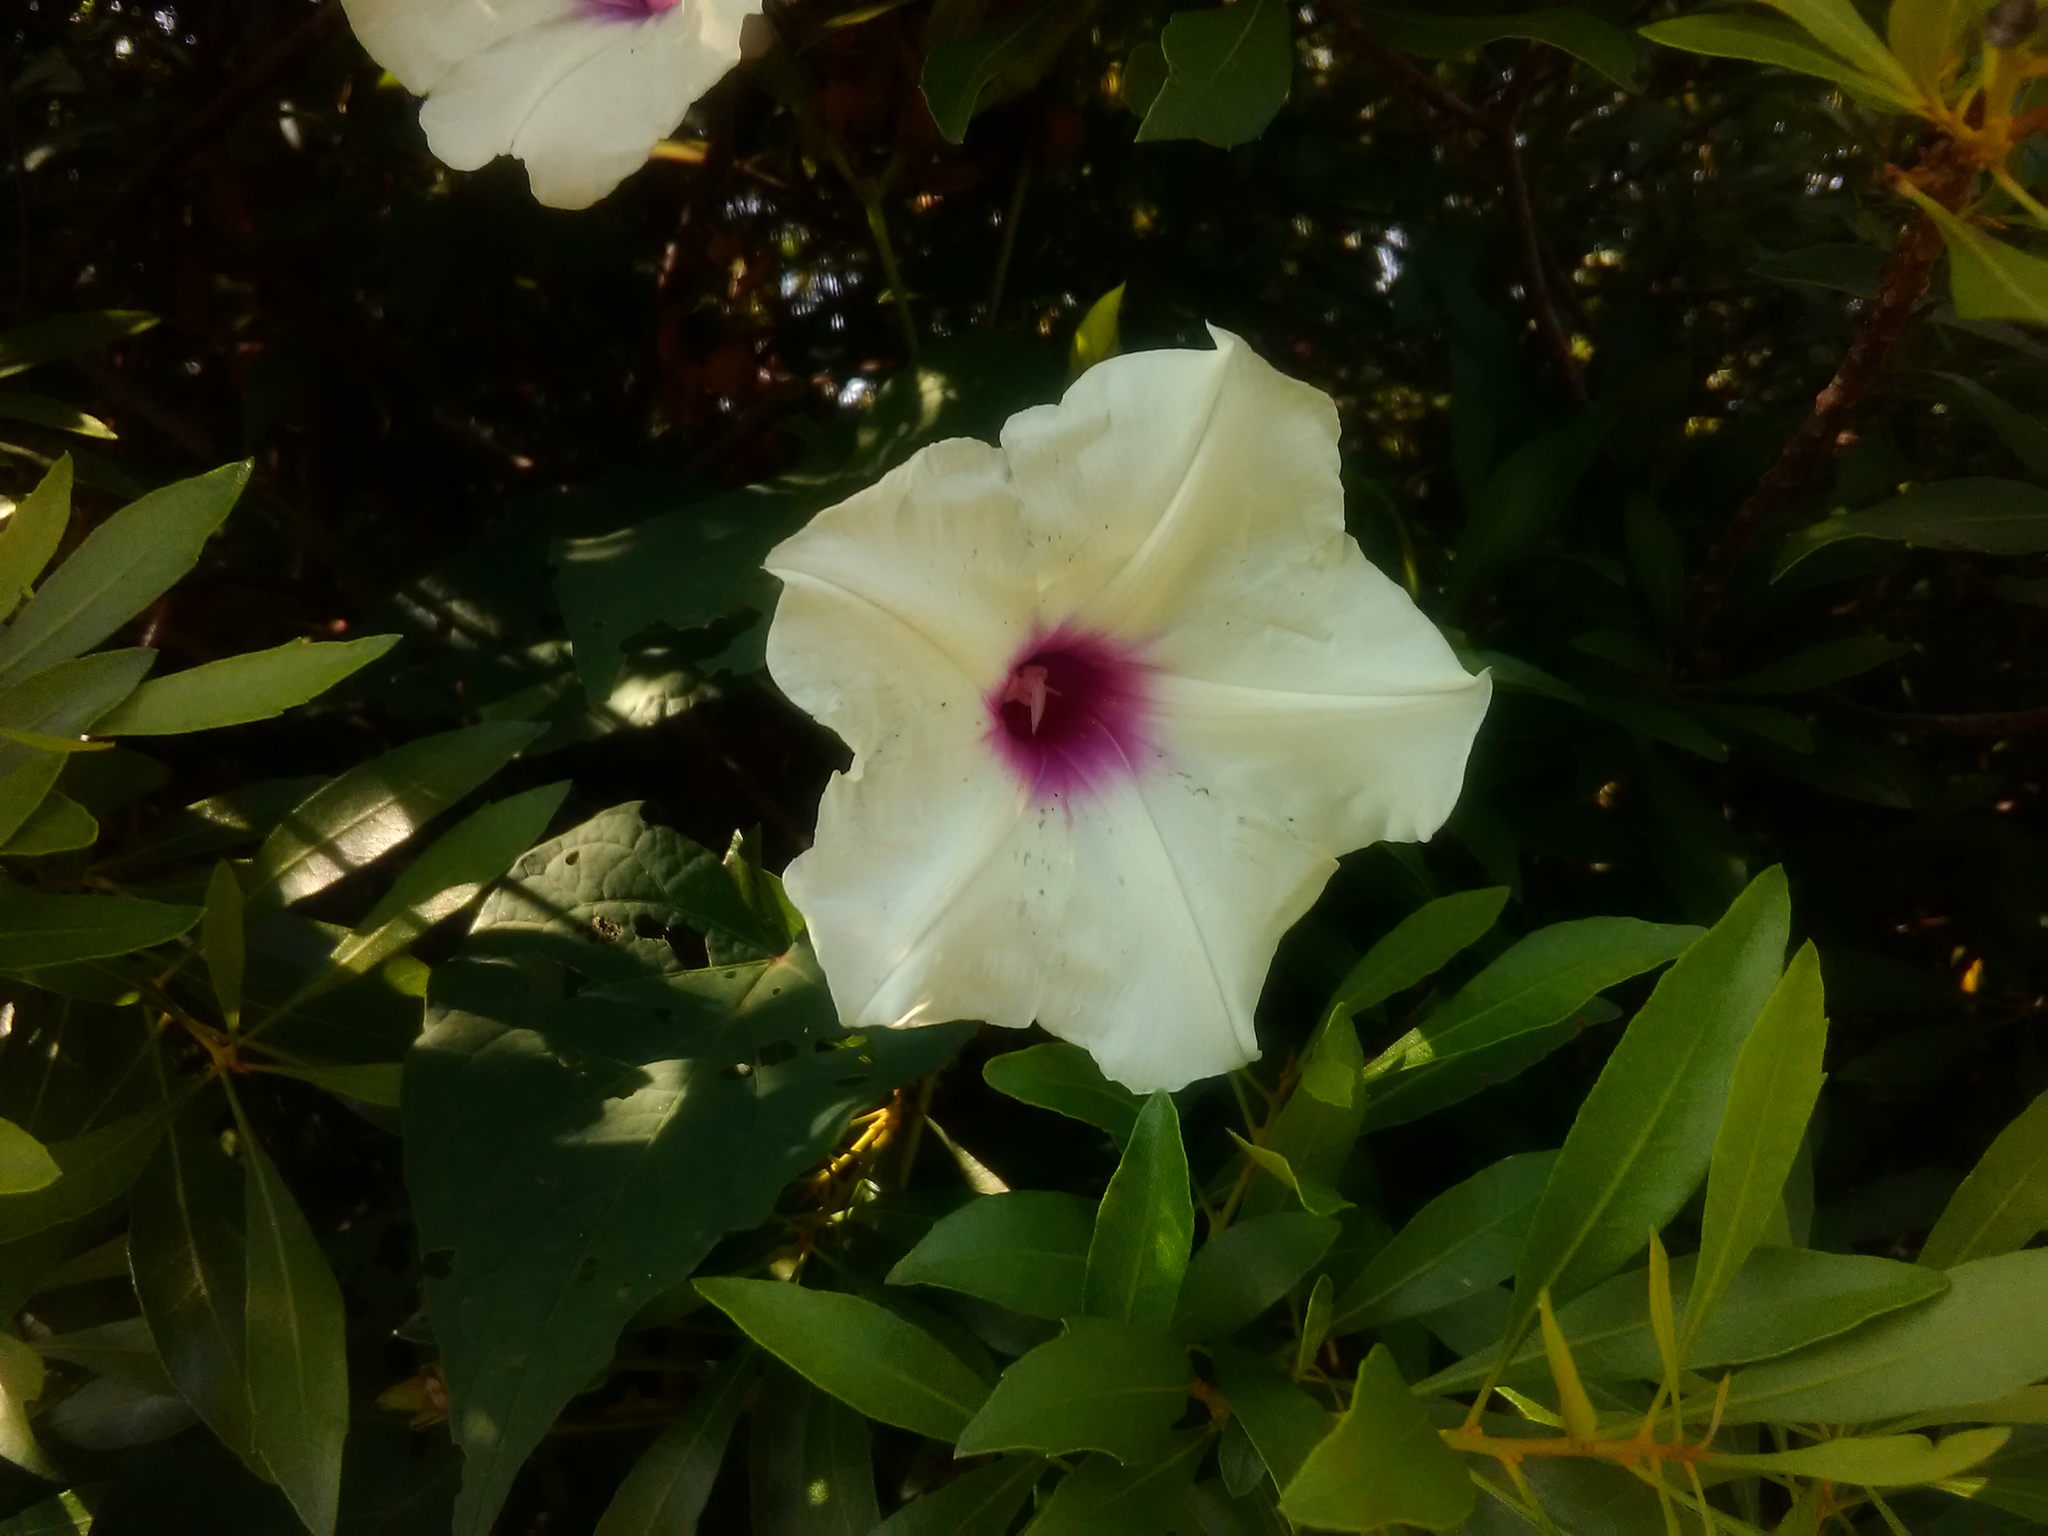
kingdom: Plantae
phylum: Tracheophyta
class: Magnoliopsida
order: Solanales
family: Convolvulaceae
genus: Ipomoea
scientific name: Ipomoea pandurata
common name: Man-of-the-earth
